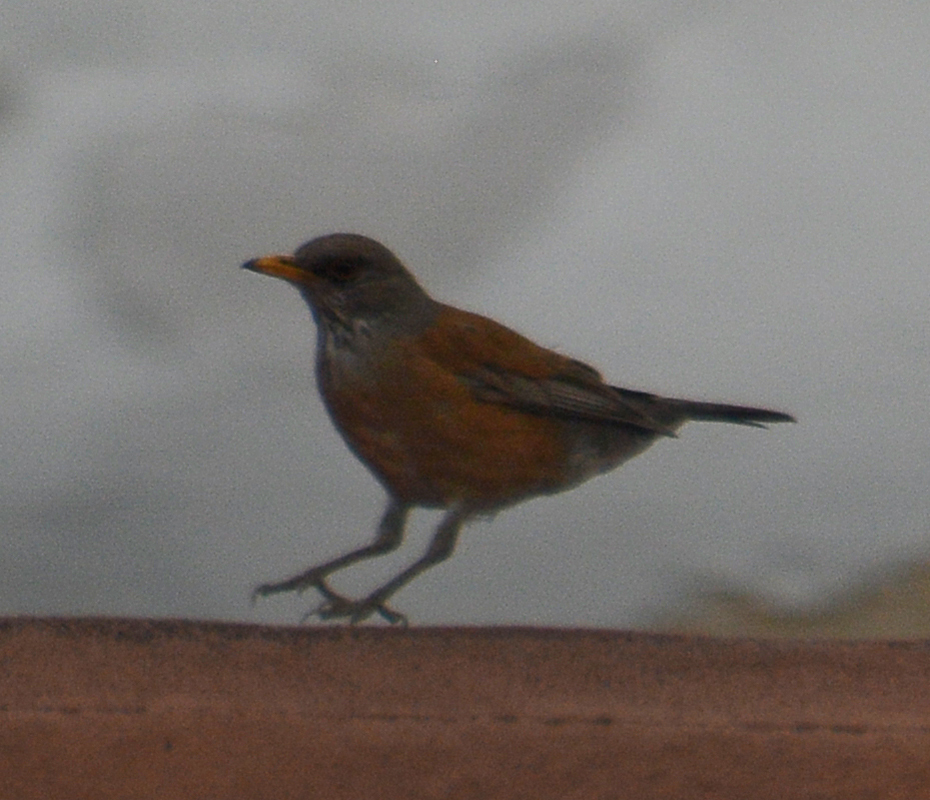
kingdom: Animalia
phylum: Chordata
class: Aves
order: Passeriformes
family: Turdidae
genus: Turdus
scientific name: Turdus rufopalliatus
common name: Rufous-backed robin
